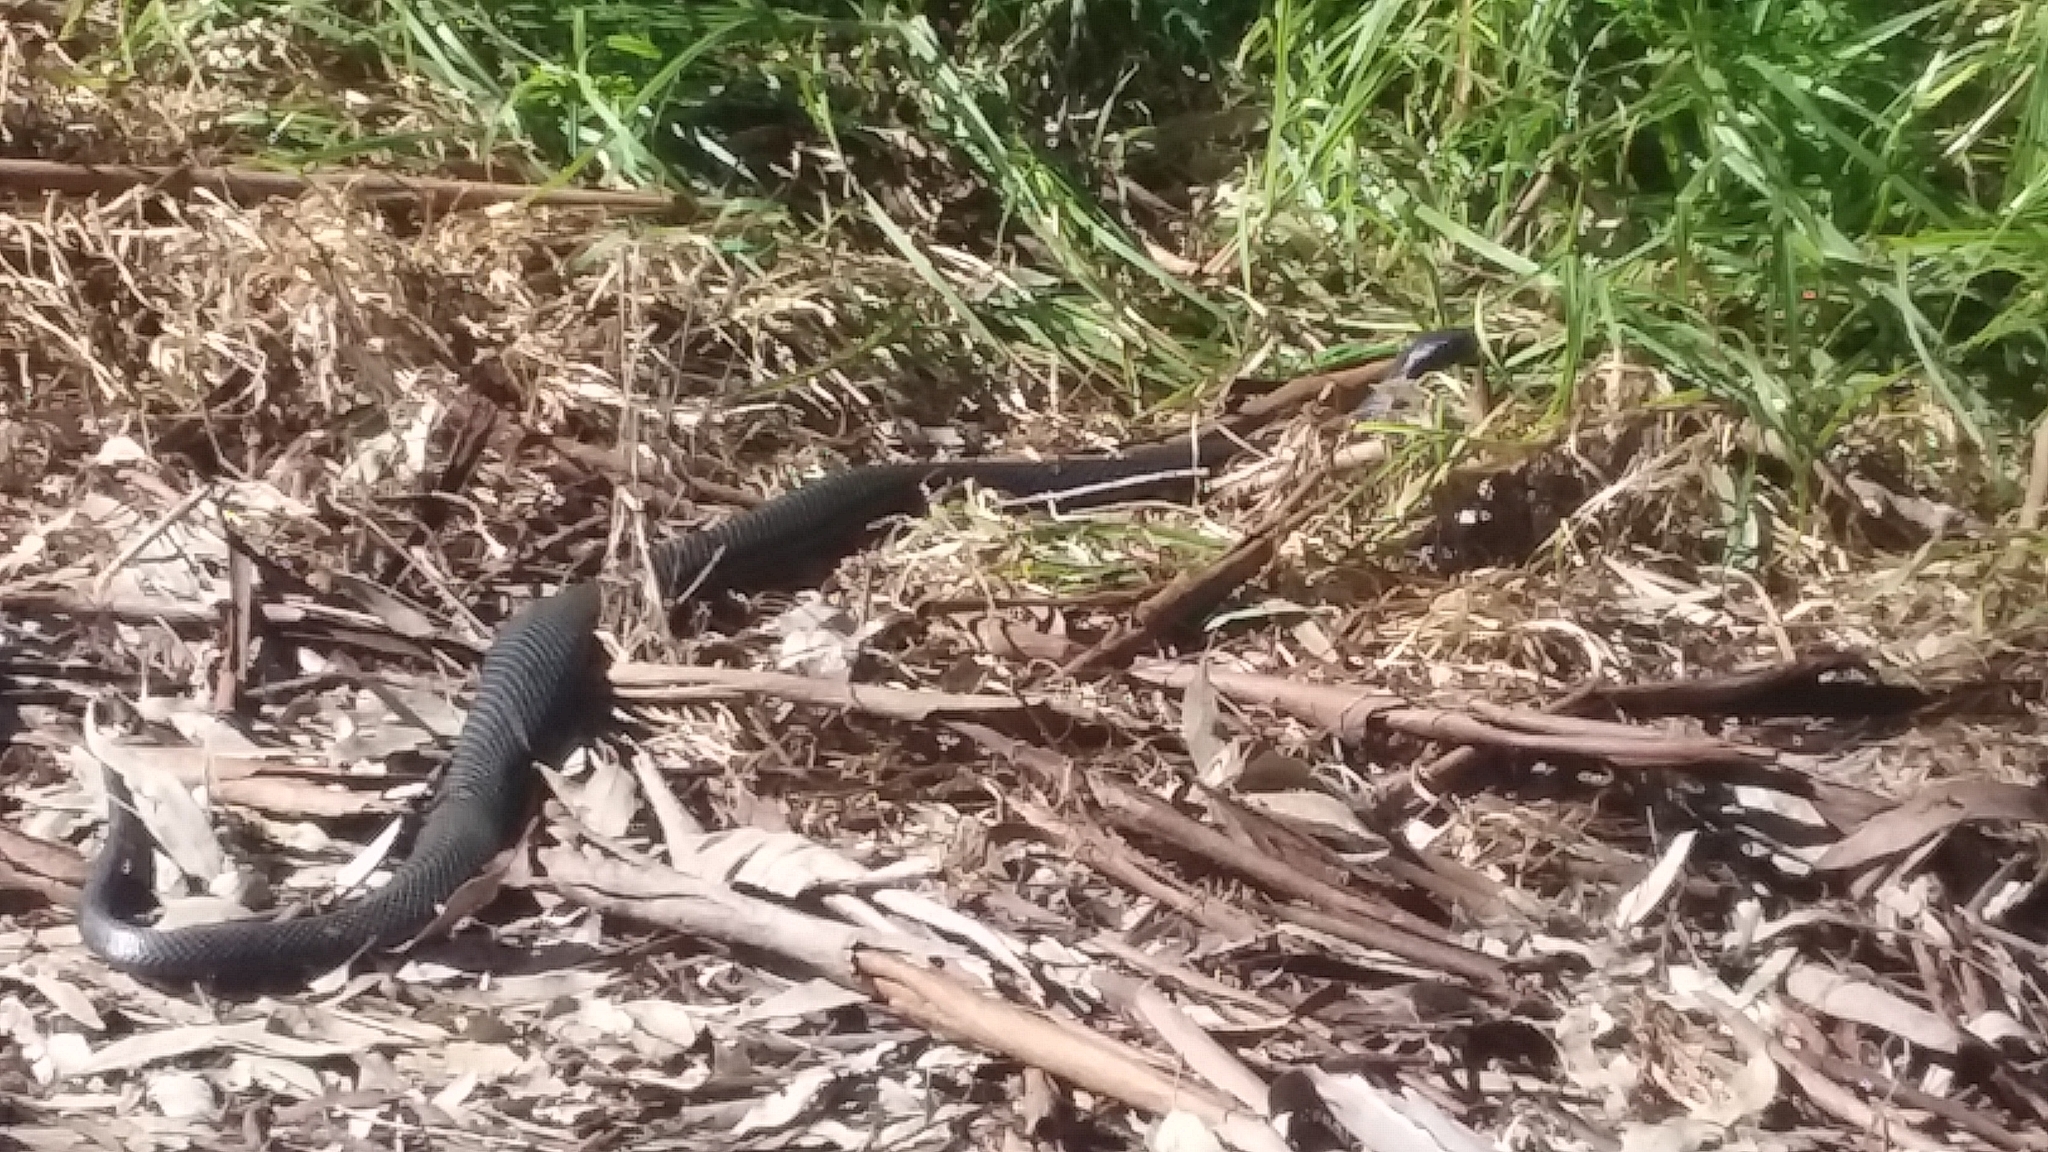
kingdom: Animalia
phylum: Chordata
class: Squamata
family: Elapidae
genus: Pseudechis
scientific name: Pseudechis porphyriacus
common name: Australian black snake
